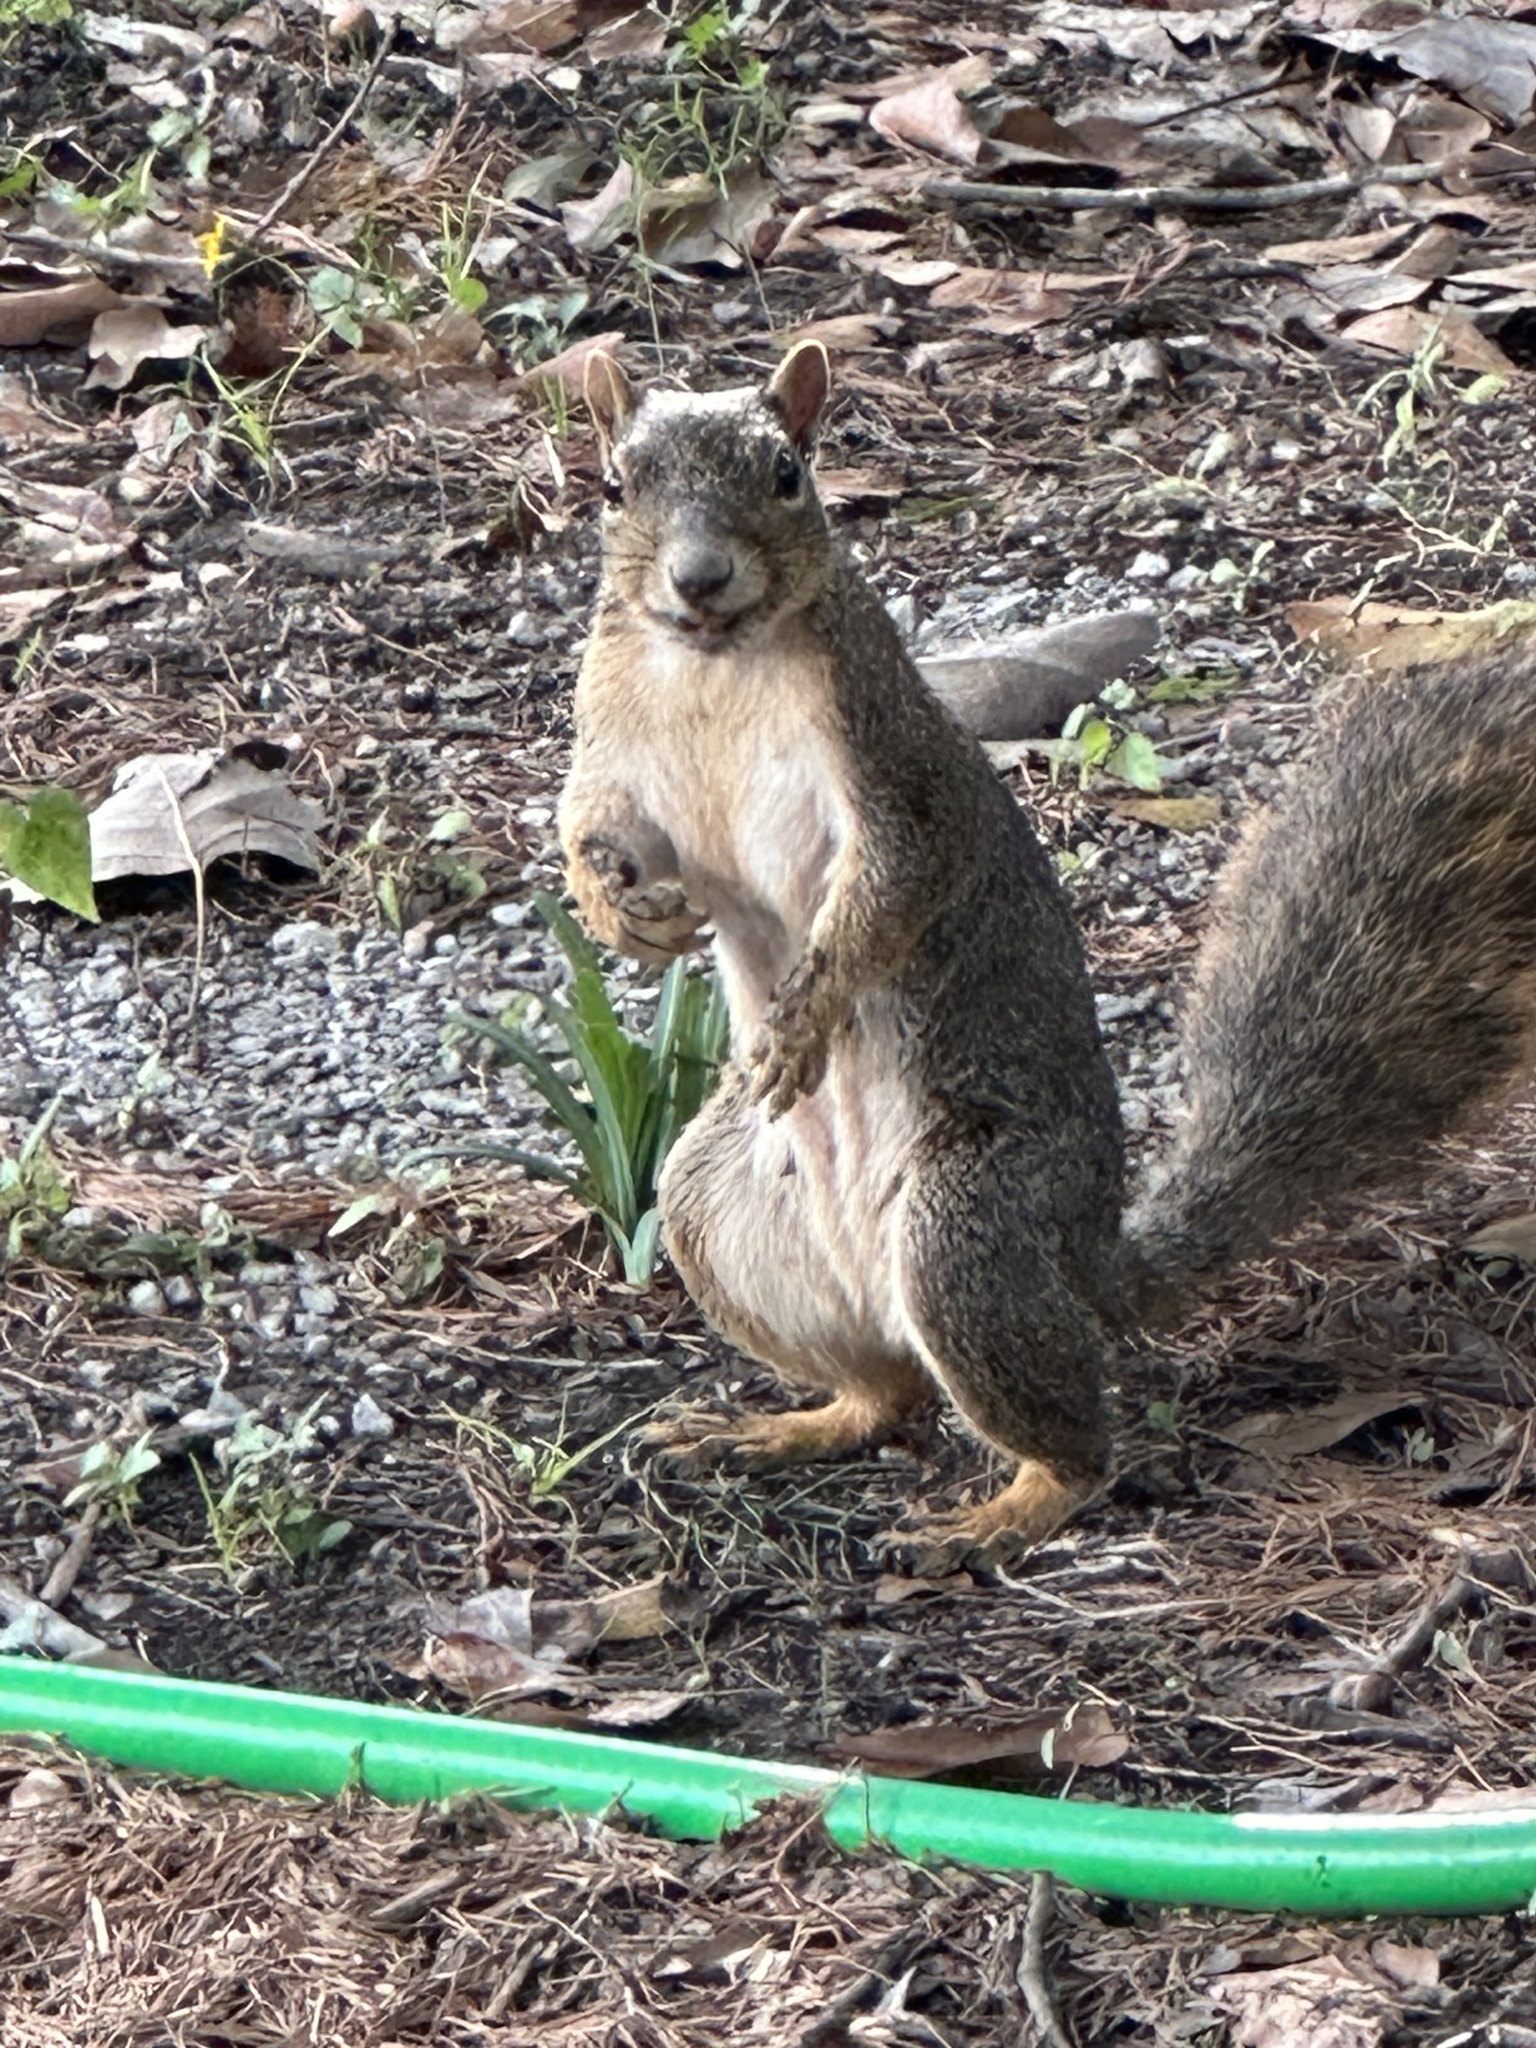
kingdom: Animalia
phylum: Chordata
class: Mammalia
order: Rodentia
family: Sciuridae
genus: Sciurus
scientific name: Sciurus niger
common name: Fox squirrel
